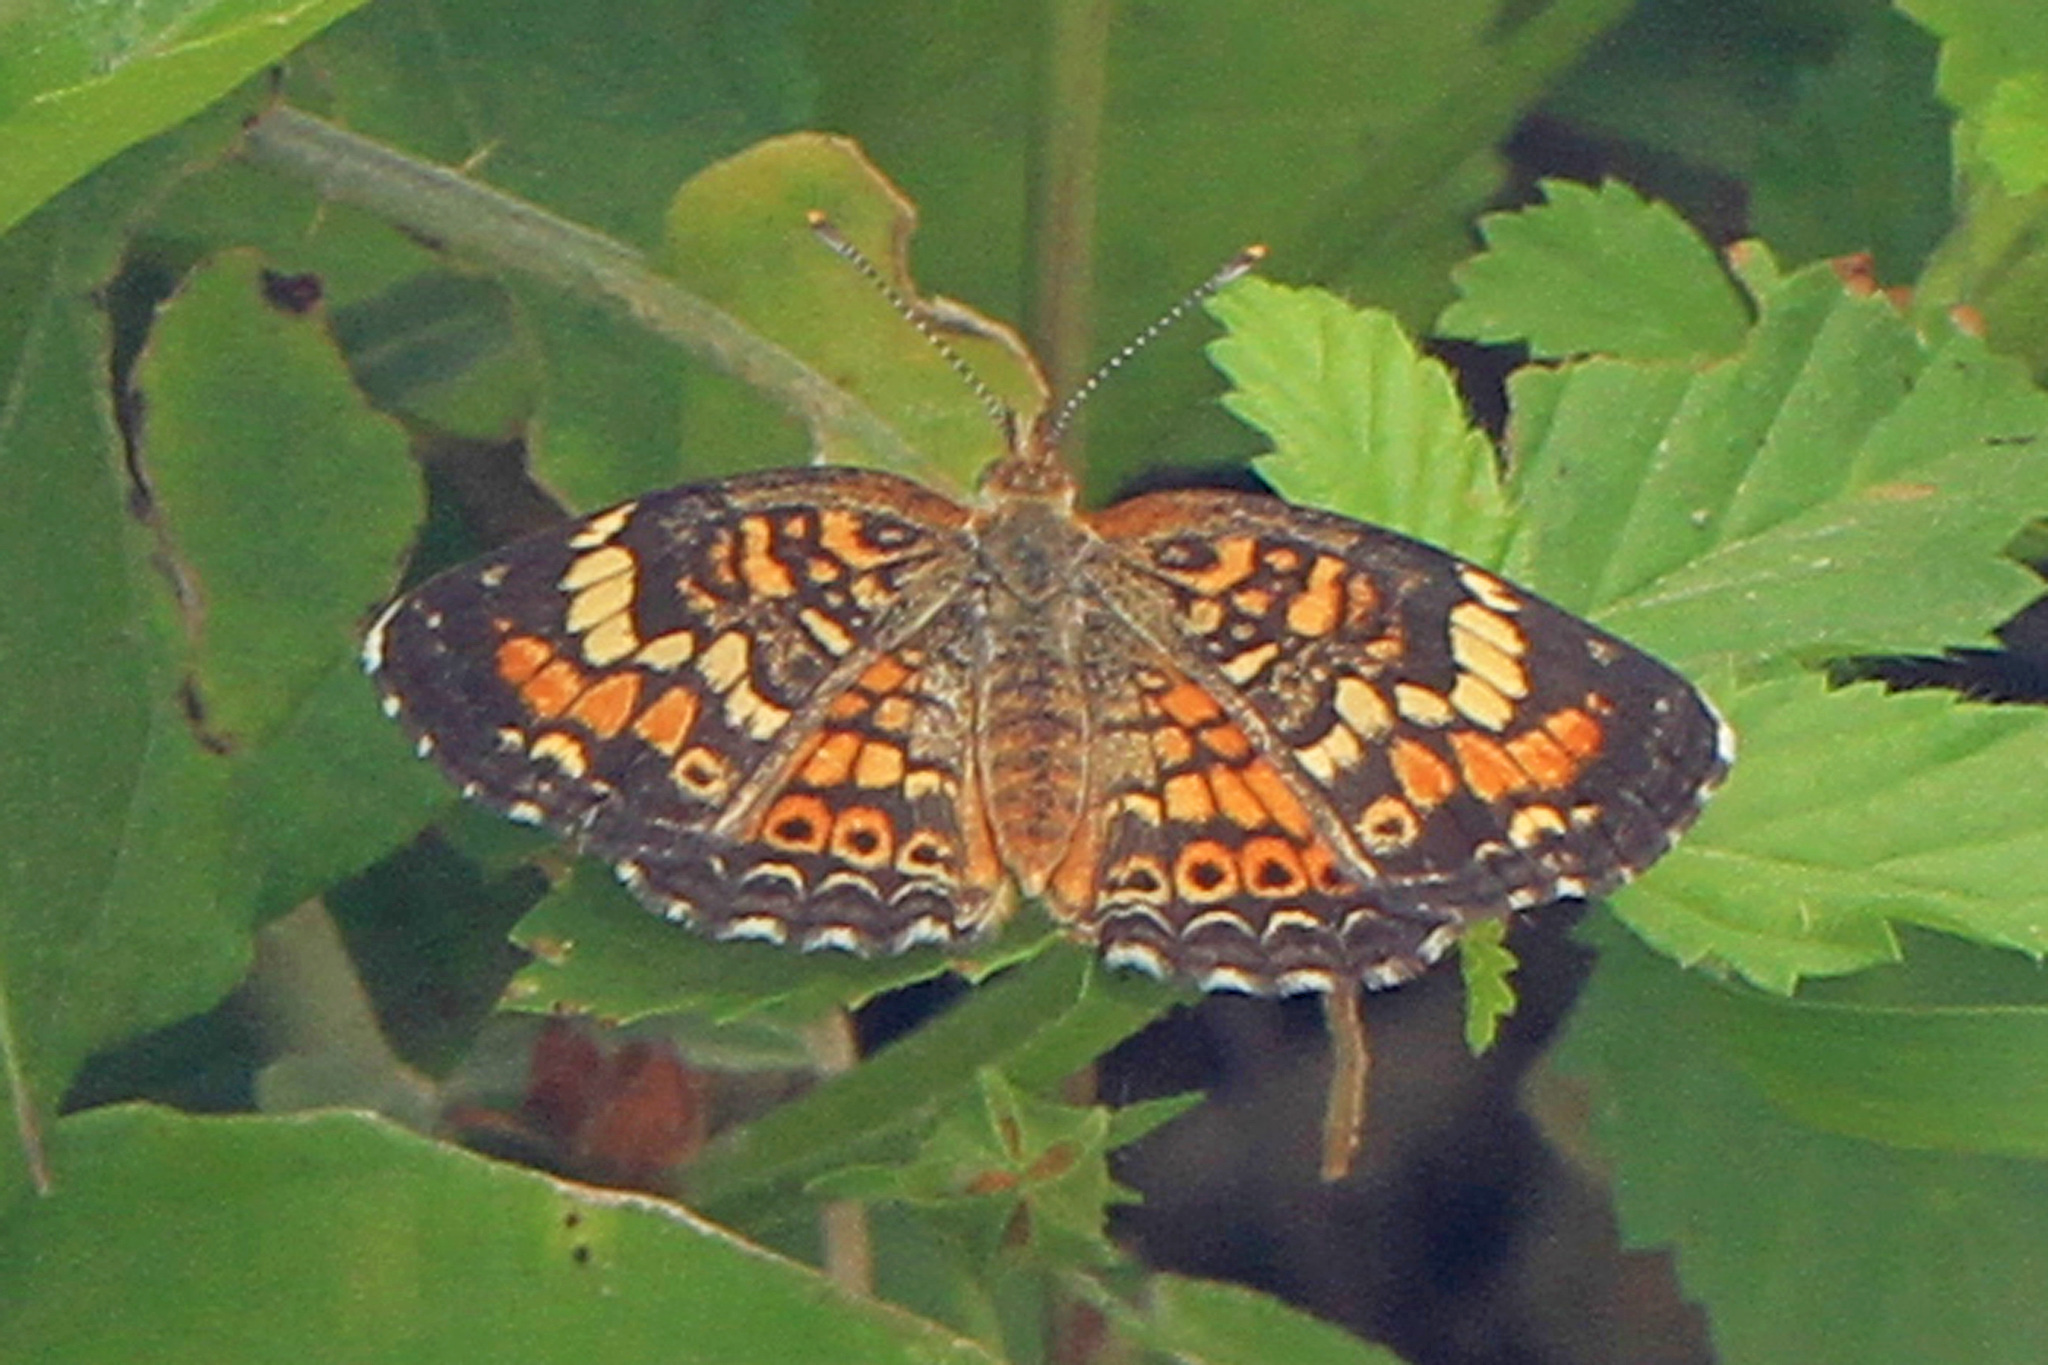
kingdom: Animalia
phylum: Arthropoda
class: Insecta
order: Lepidoptera
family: Nymphalidae
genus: Phyciodes
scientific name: Phyciodes phaon
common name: Phaon crescent
